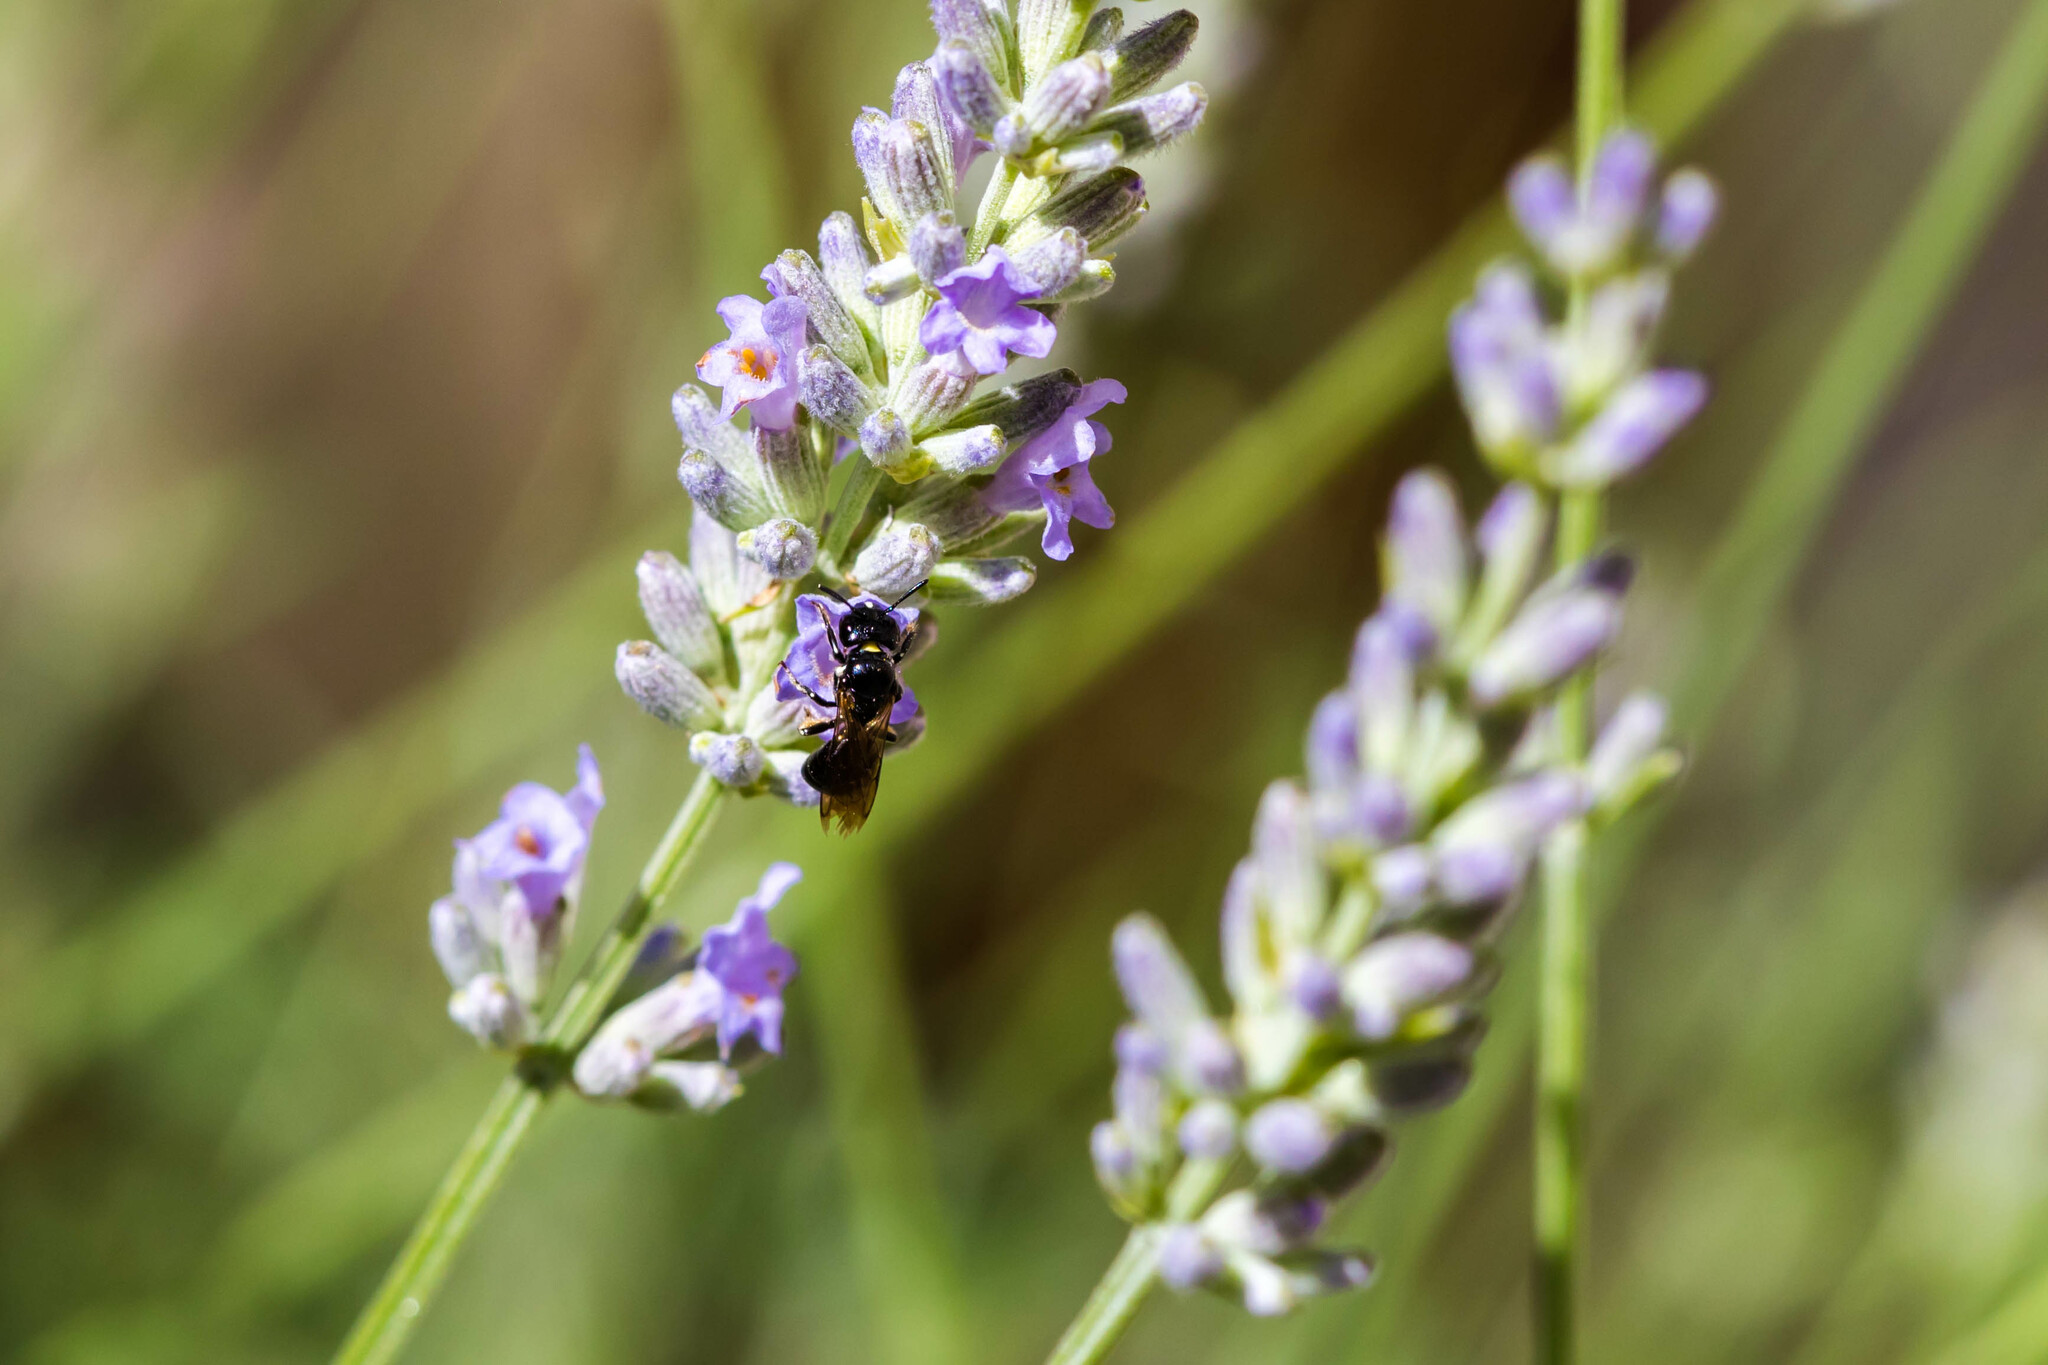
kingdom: Animalia
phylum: Arthropoda
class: Insecta
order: Hymenoptera
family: Apidae
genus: Ceratina
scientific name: Ceratina cucurbitina
